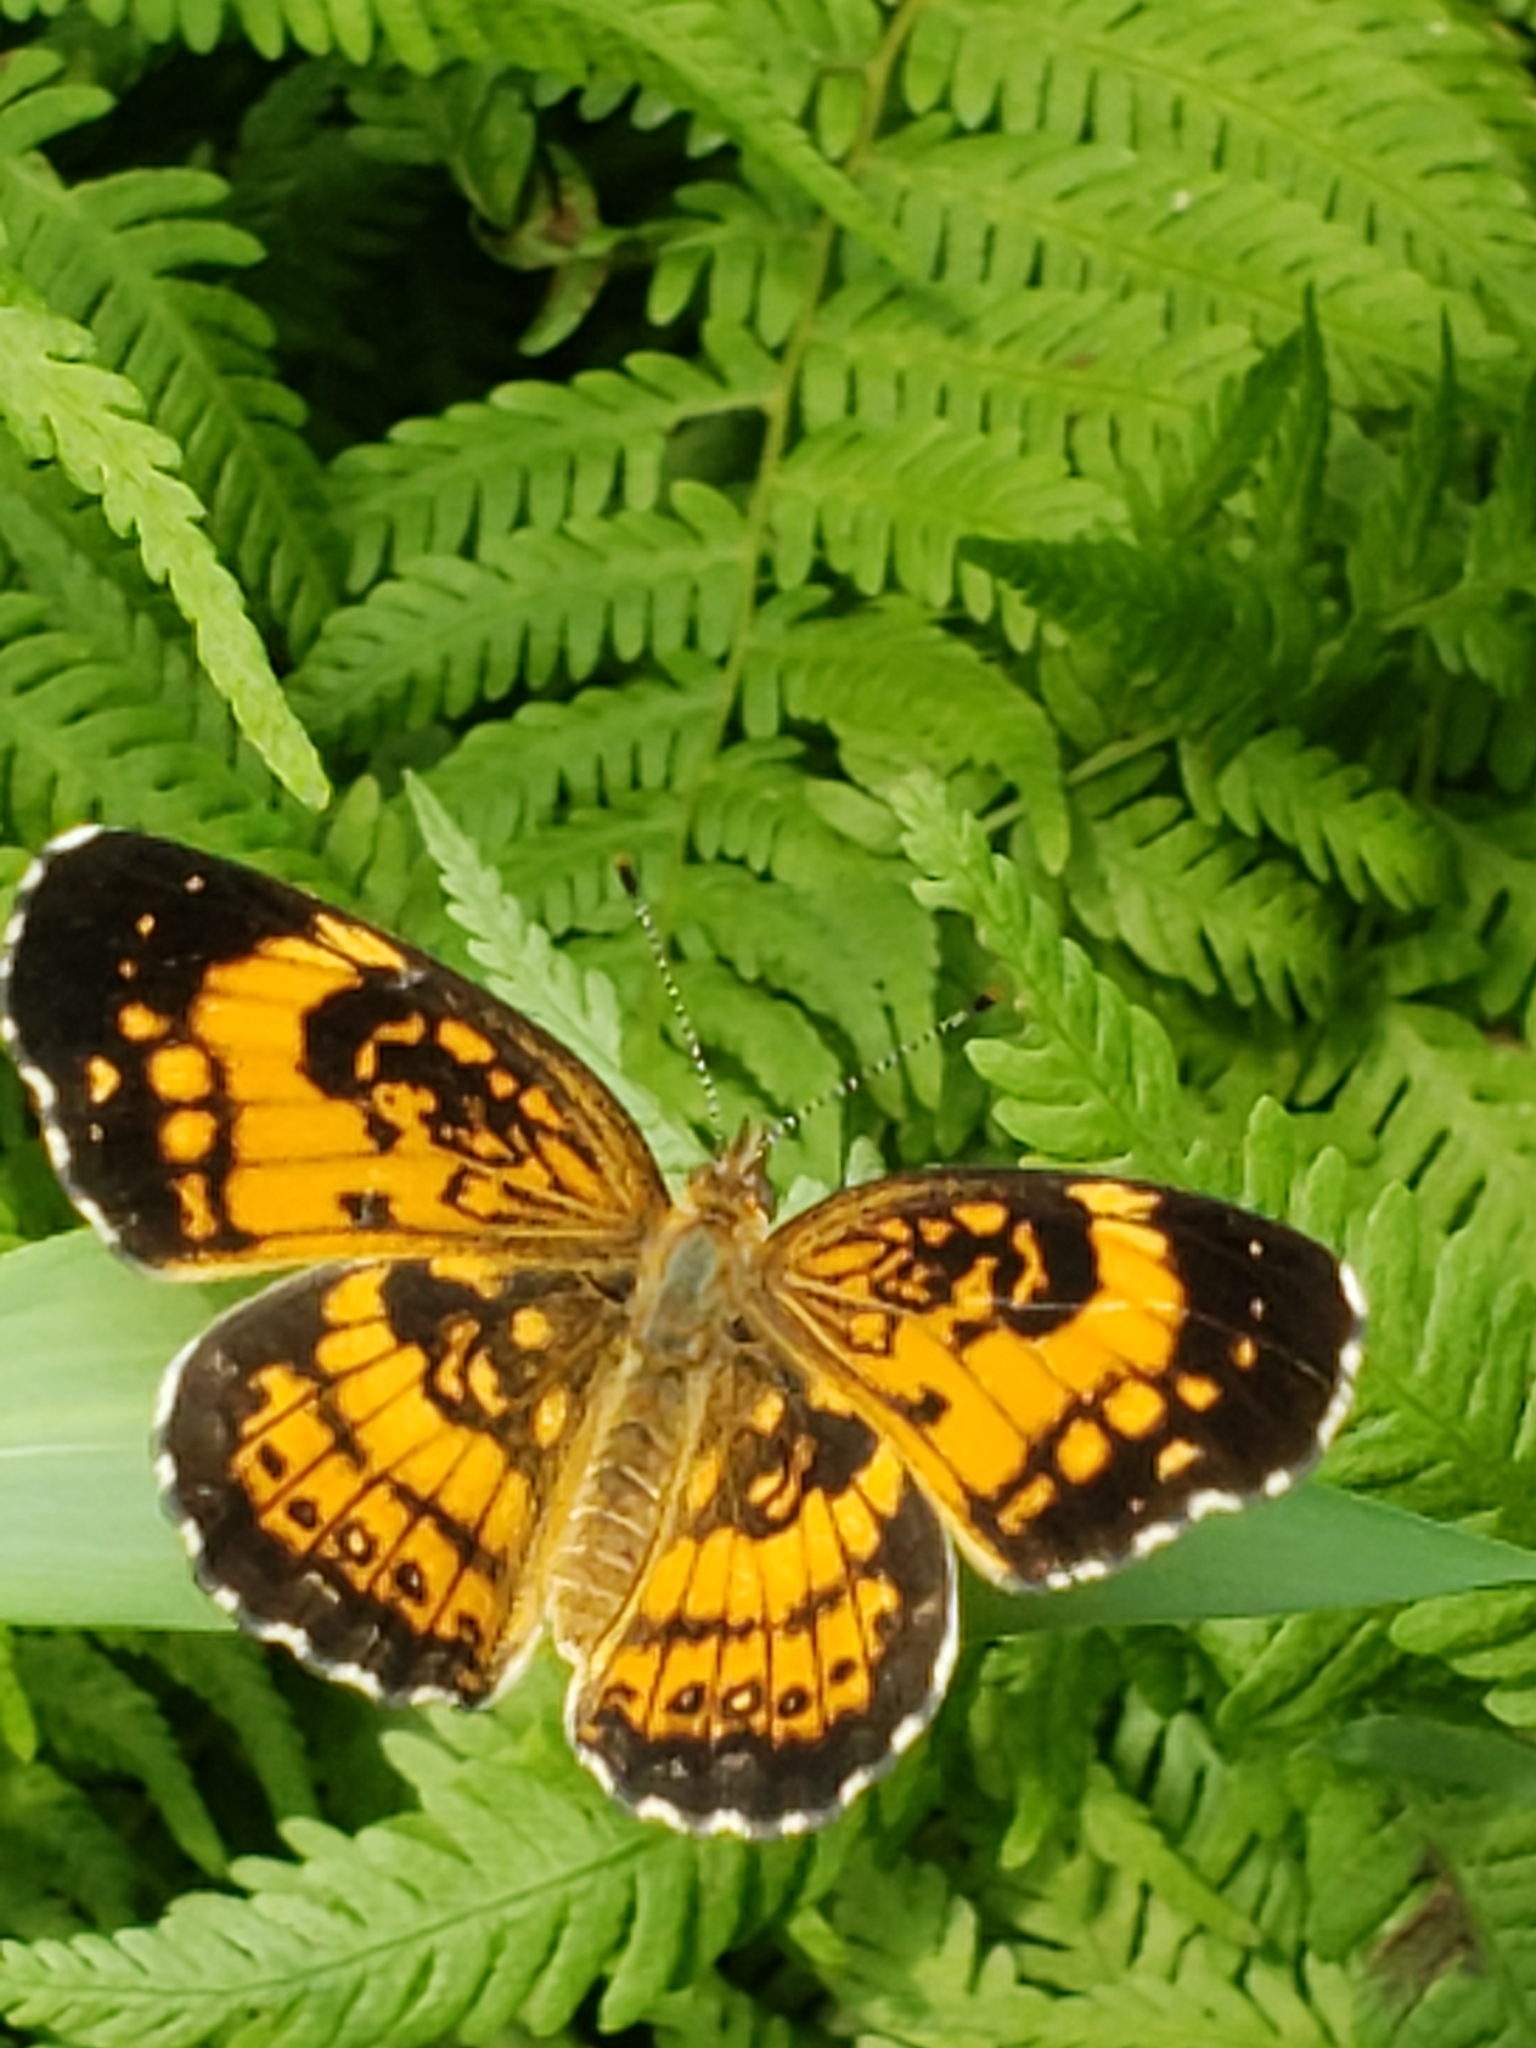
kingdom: Animalia
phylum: Arthropoda
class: Insecta
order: Lepidoptera
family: Nymphalidae
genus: Chlosyne
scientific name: Chlosyne nycteis
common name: Silvery checkerspot
